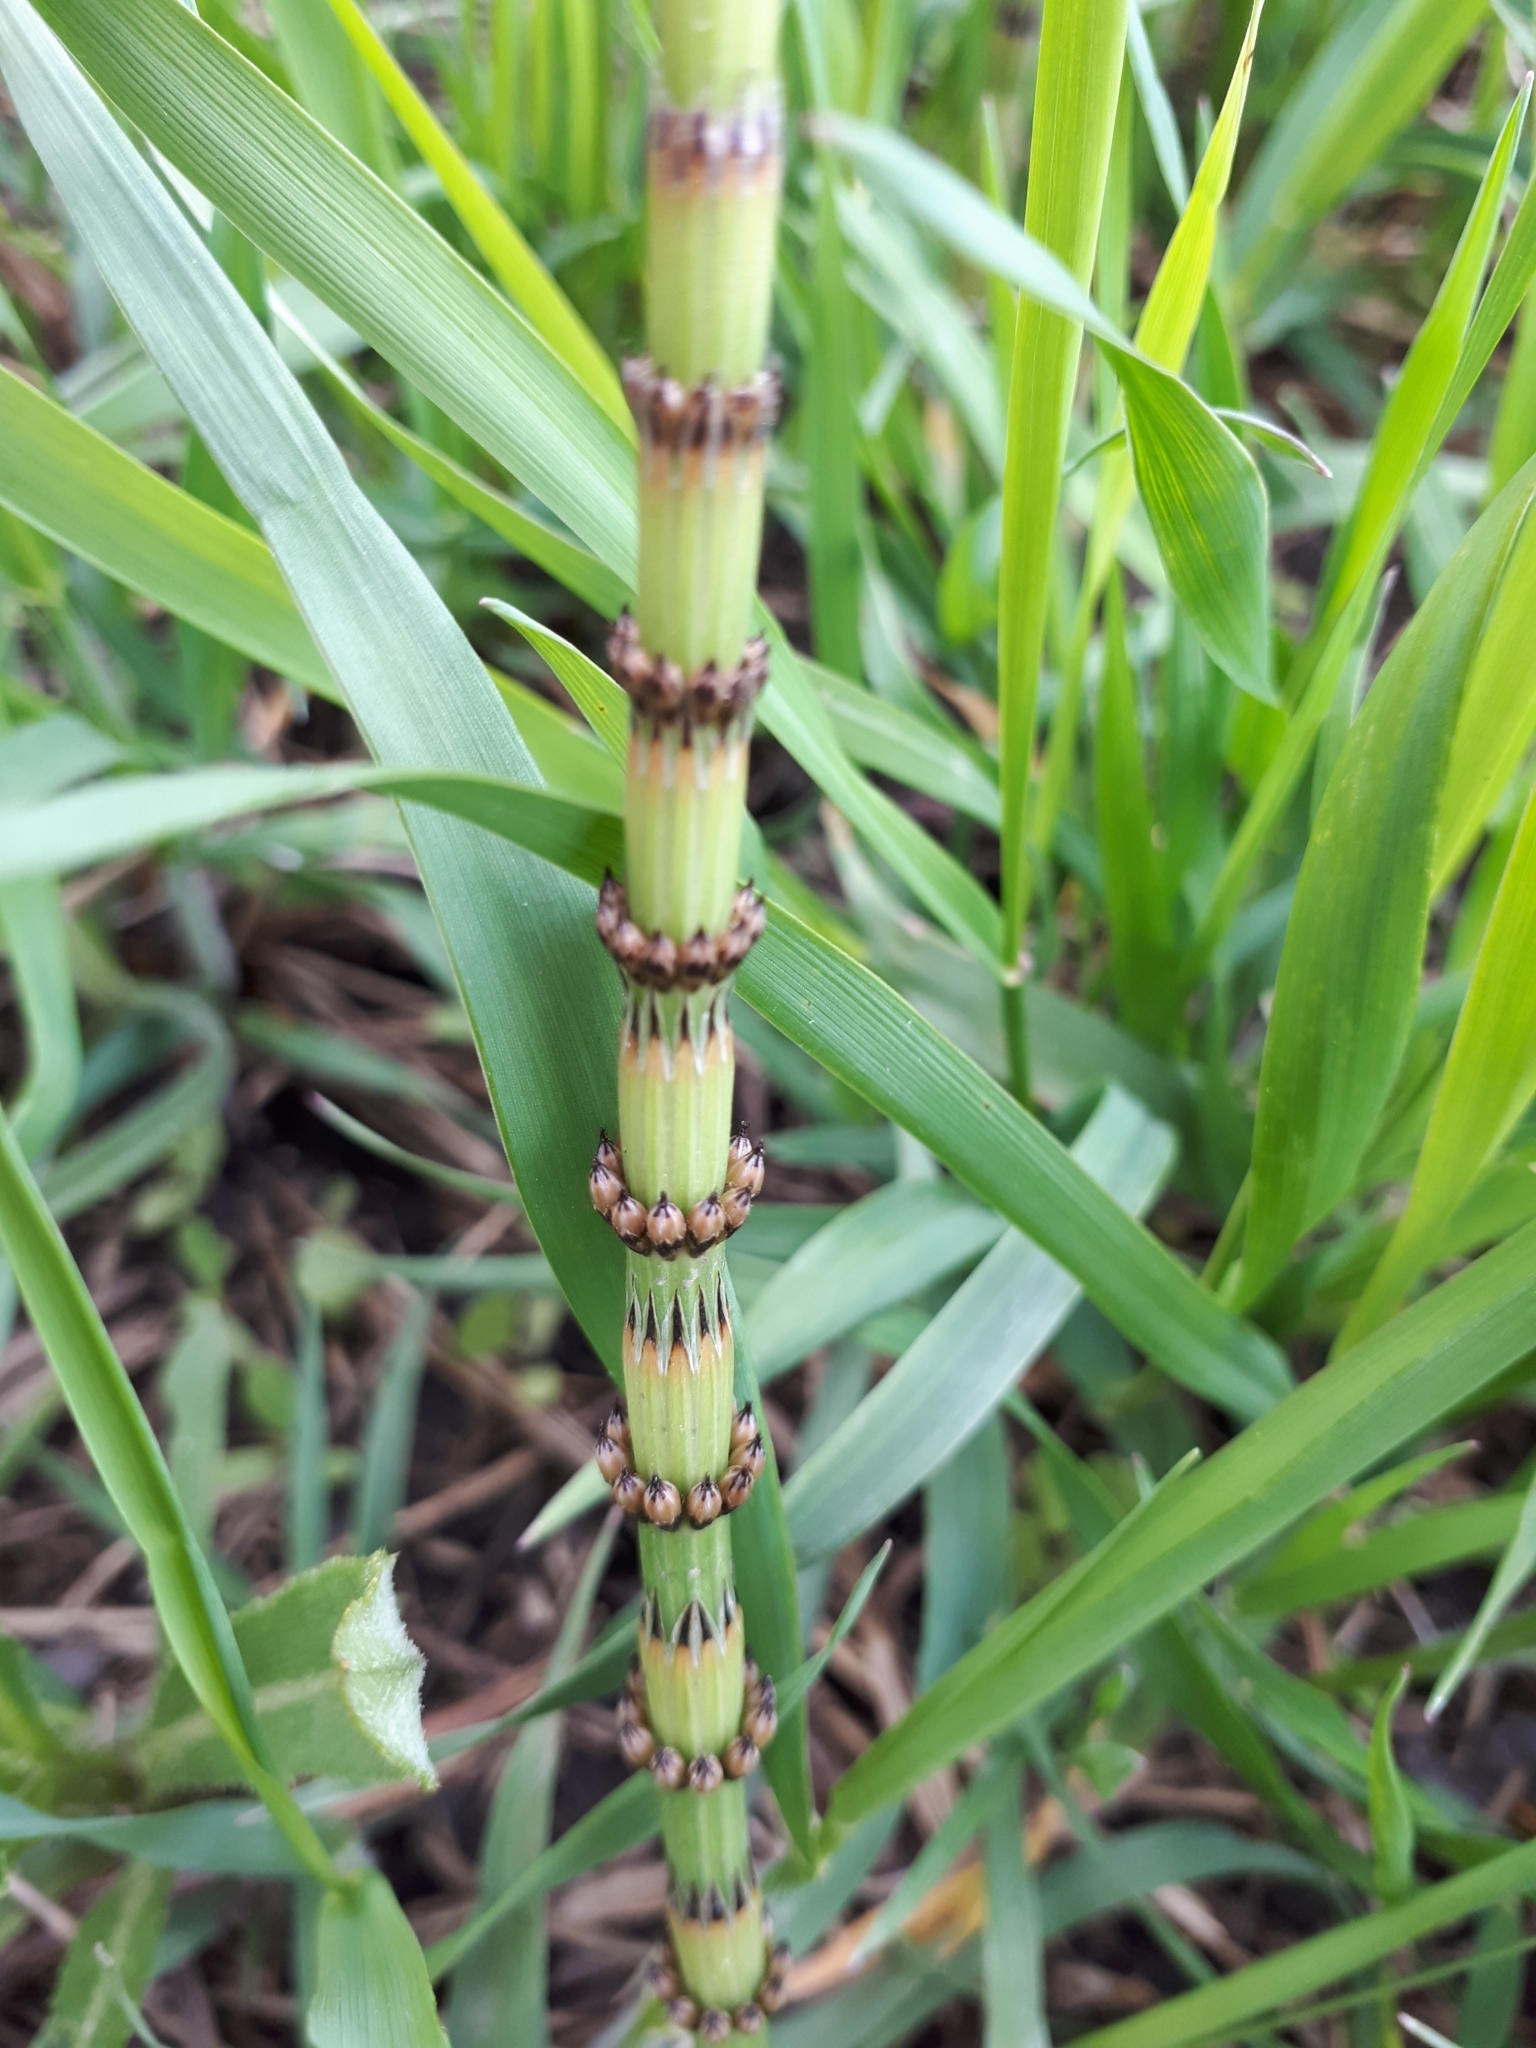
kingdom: Plantae
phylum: Tracheophyta
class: Polypodiopsida
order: Equisetales
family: Equisetaceae
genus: Equisetum
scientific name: Equisetum fluviatile
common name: Water horsetail
